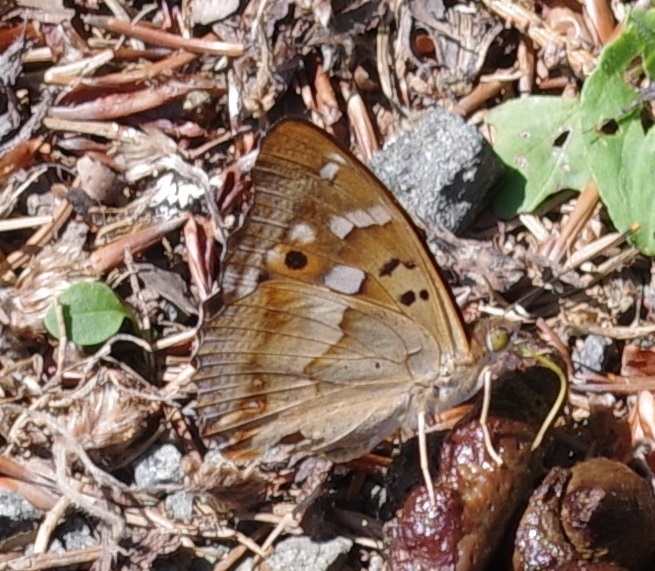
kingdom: Animalia
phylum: Arthropoda
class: Insecta
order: Lepidoptera
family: Nymphalidae
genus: Apatura
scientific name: Apatura ilia
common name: Lesser purple emperor
